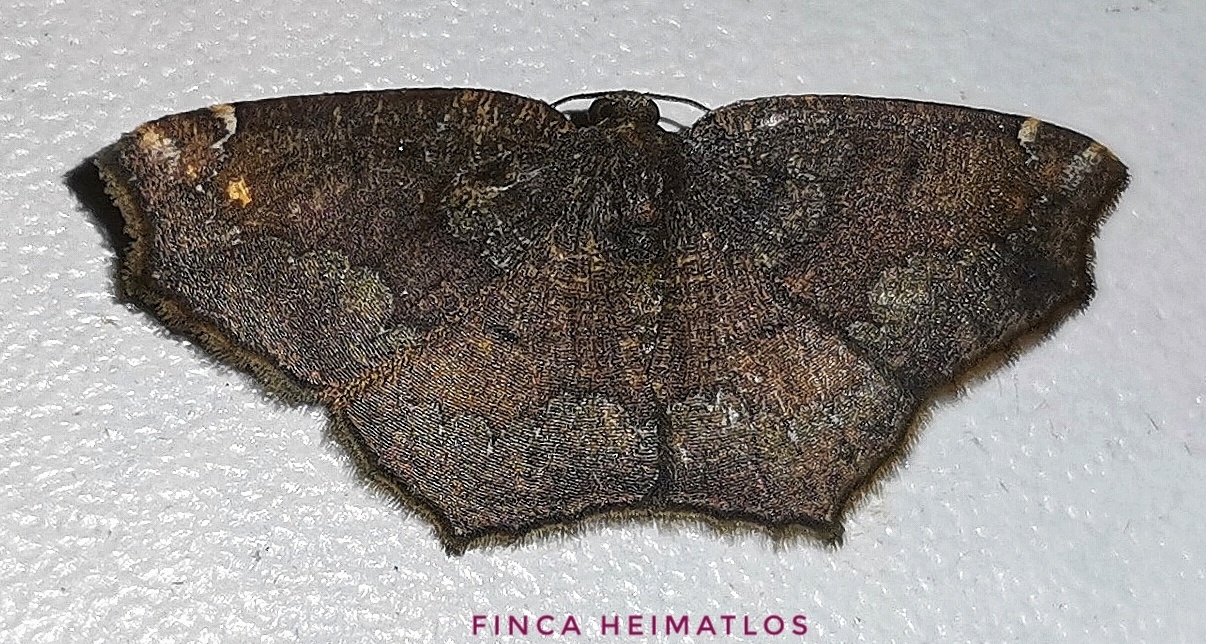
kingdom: Animalia
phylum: Arthropoda
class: Insecta
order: Lepidoptera
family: Geometridae
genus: Eustenophasma
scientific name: Eustenophasma constricta
